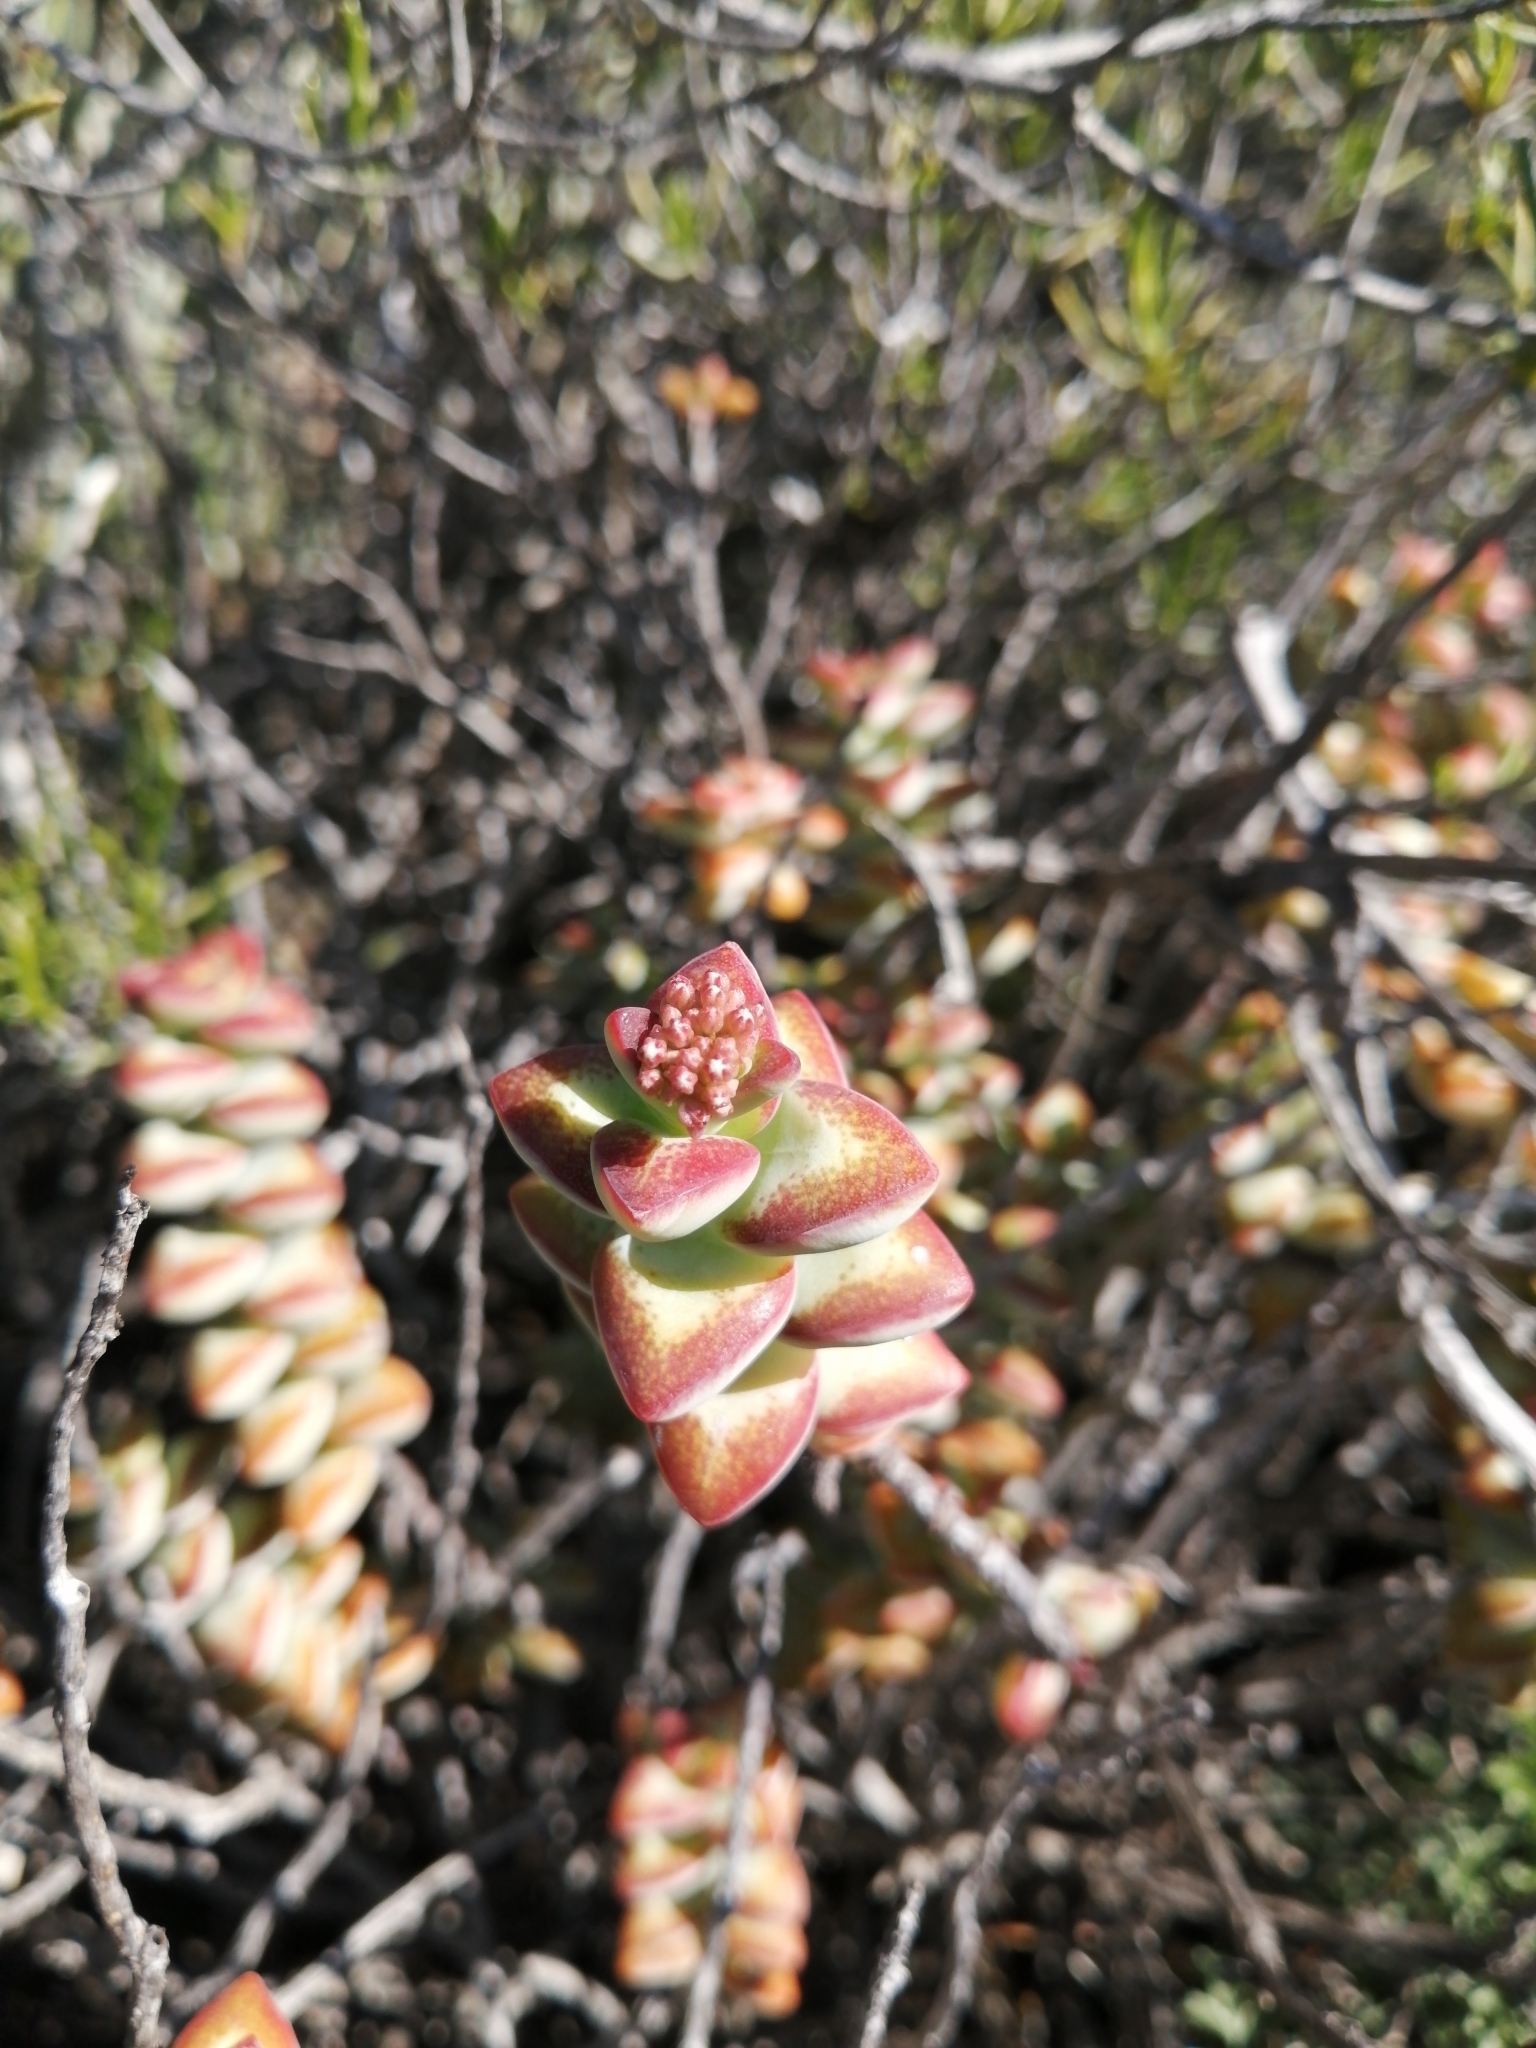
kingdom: Plantae
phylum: Tracheophyta
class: Magnoliopsida
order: Saxifragales
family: Crassulaceae
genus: Crassula
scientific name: Crassula rupestris
